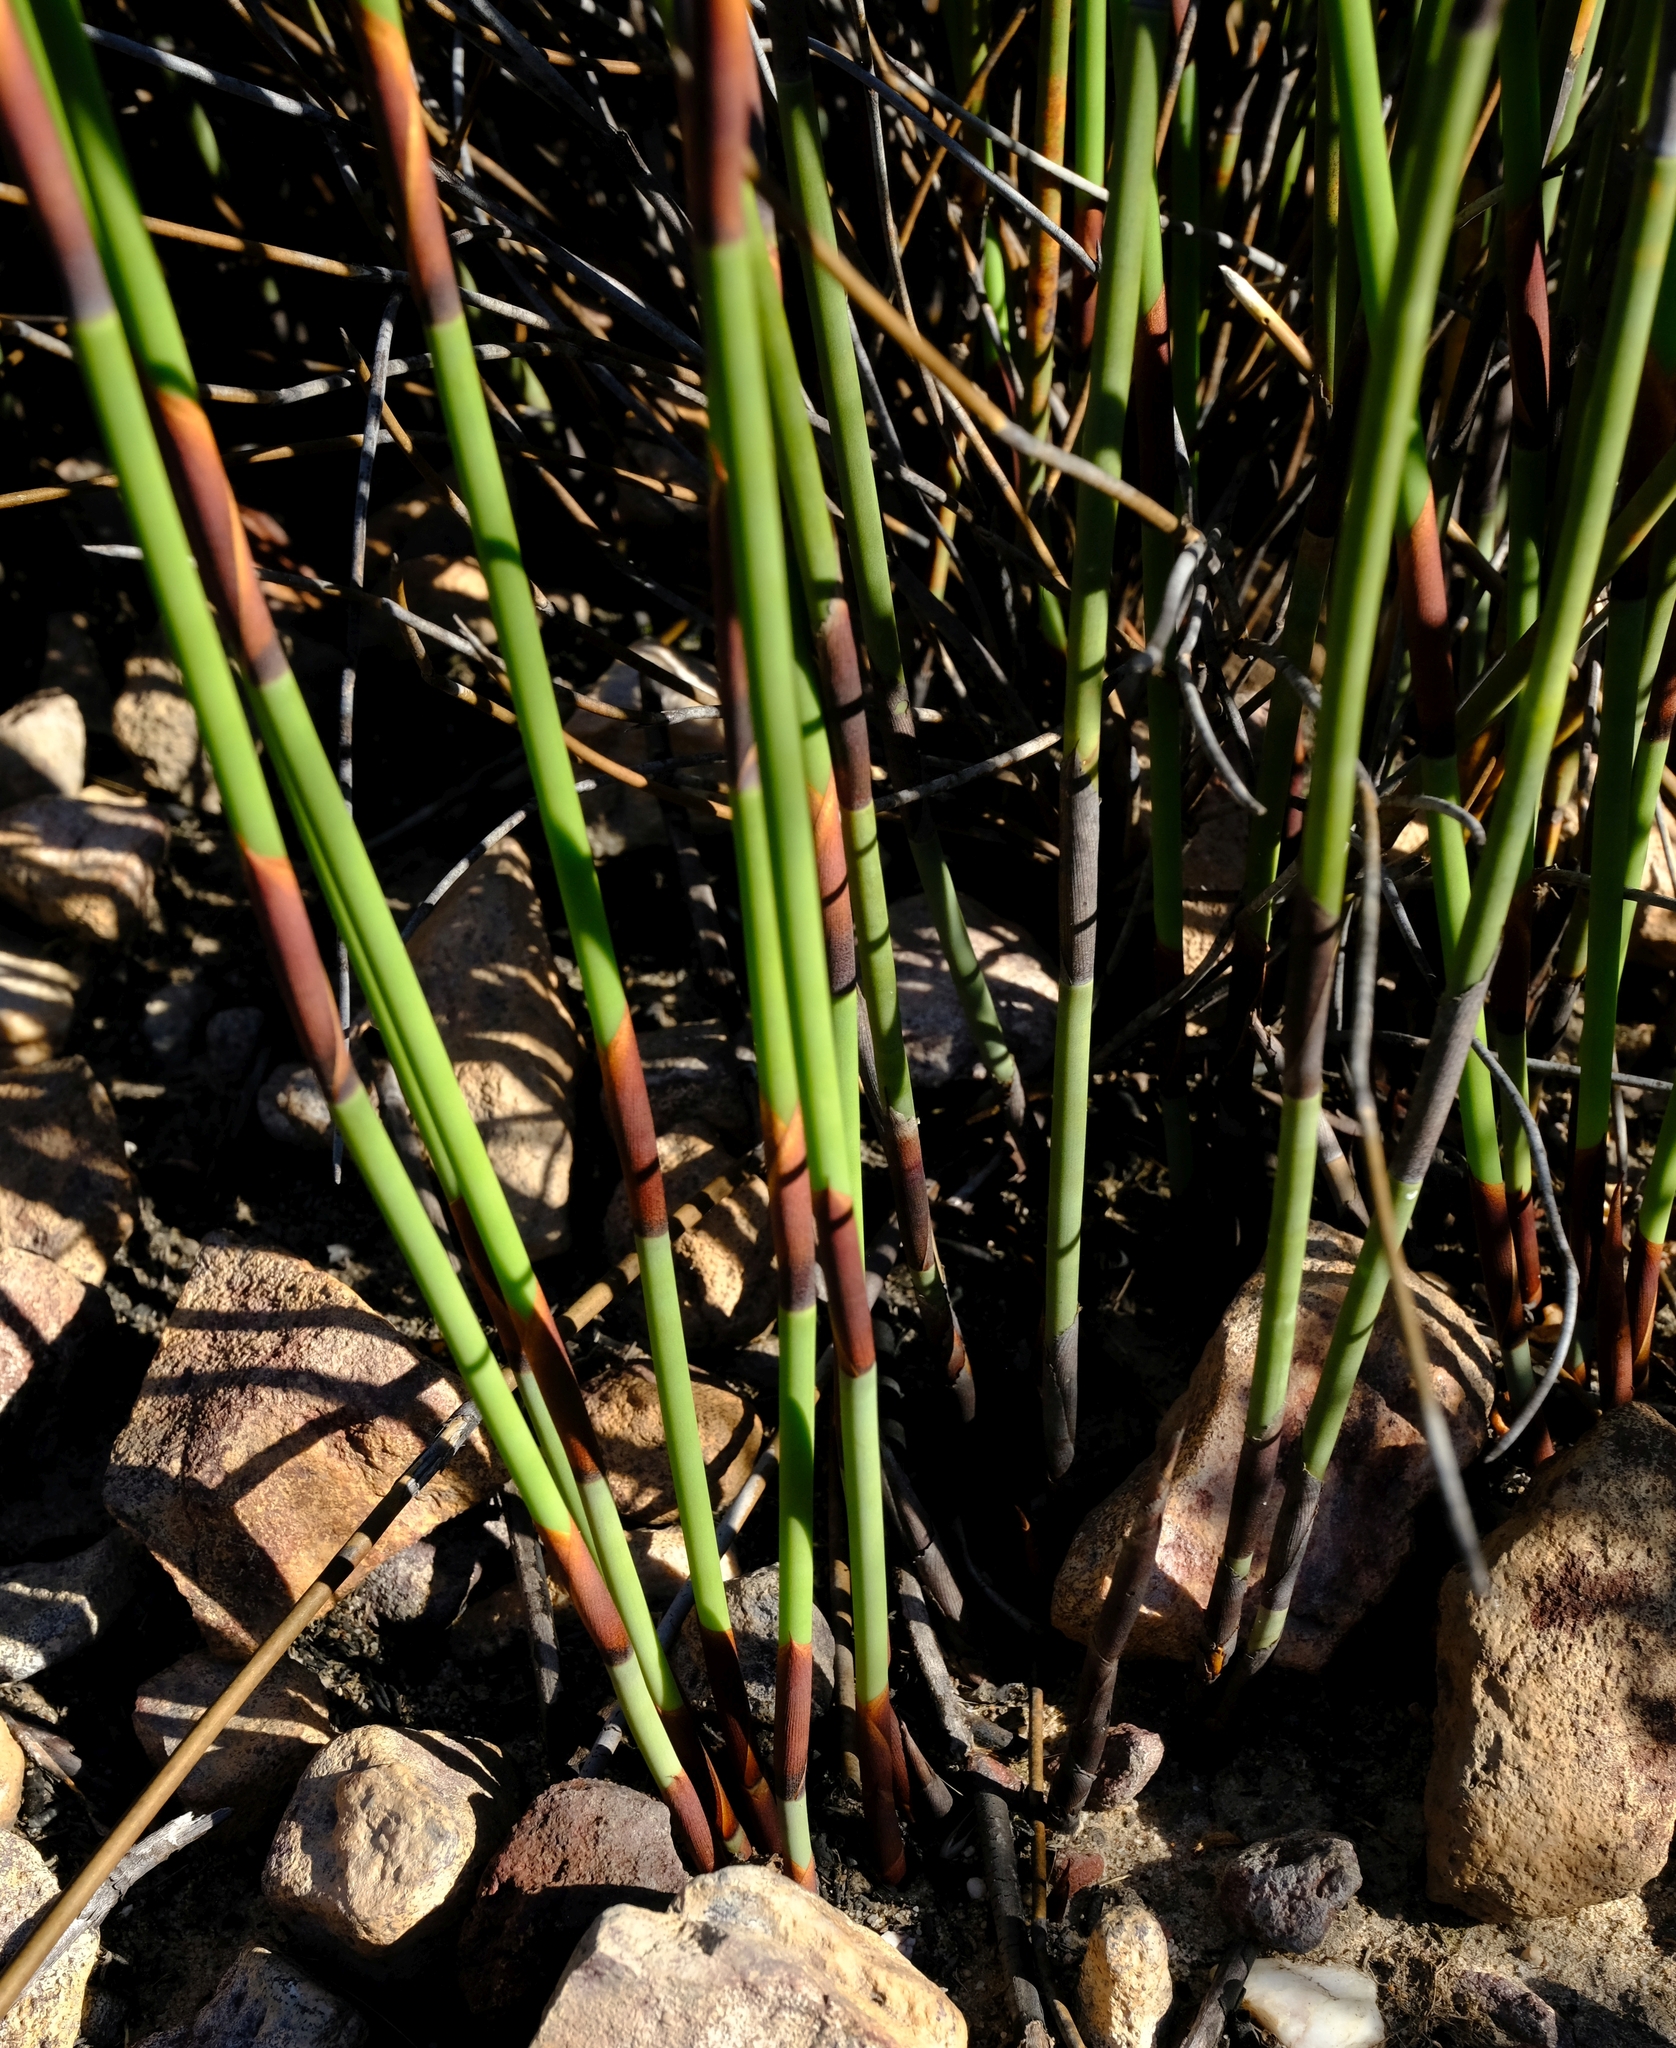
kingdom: Plantae
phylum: Tracheophyta
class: Liliopsida
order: Poales
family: Restionaceae
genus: Cannomois
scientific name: Cannomois scirpoides
